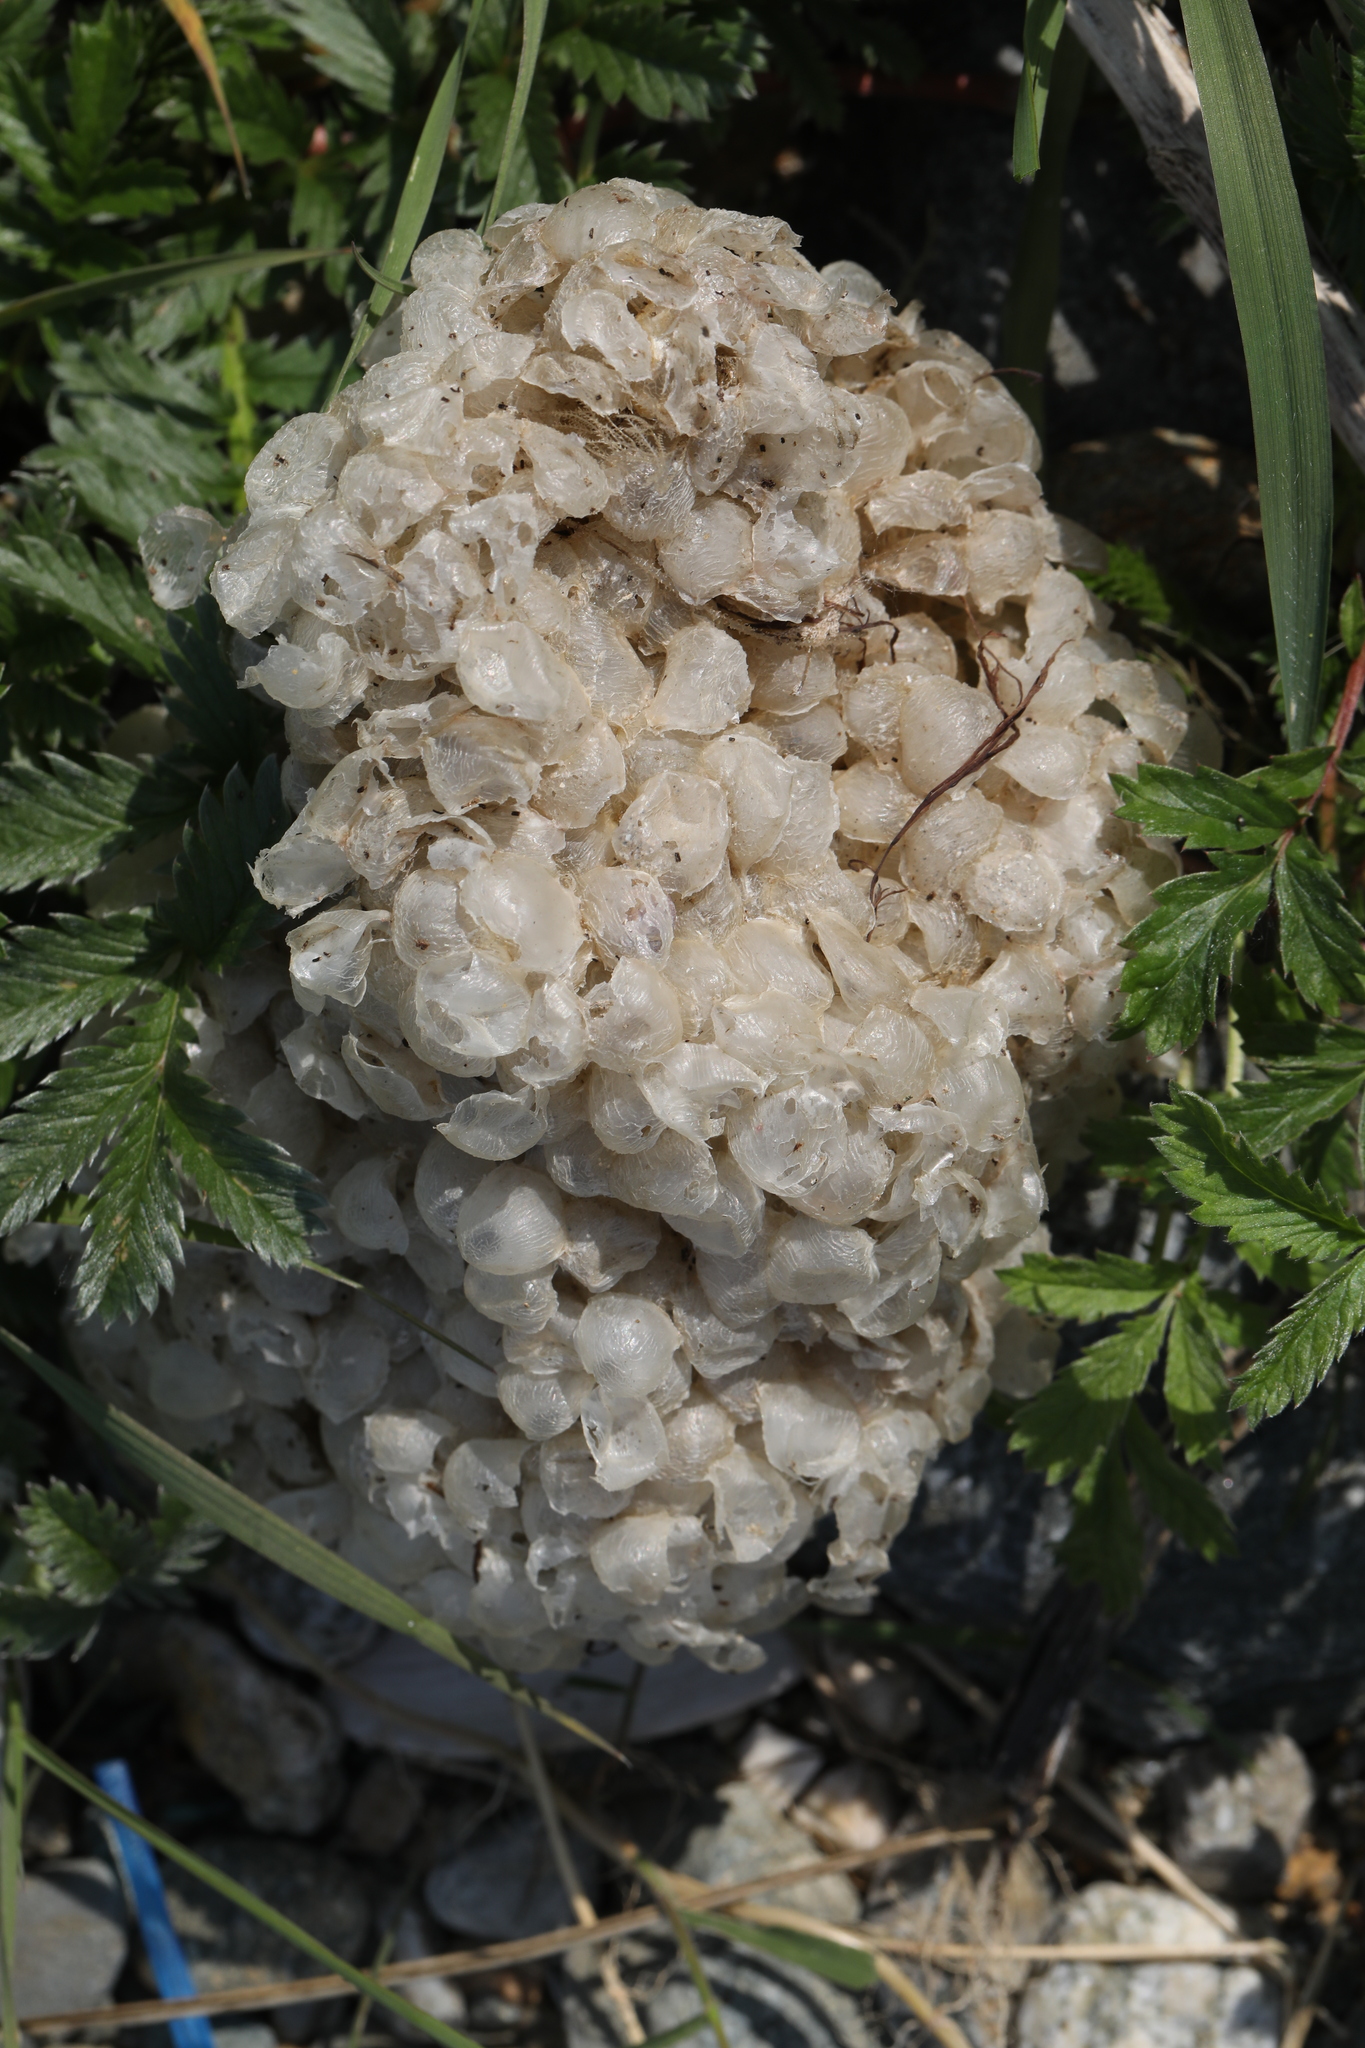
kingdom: Animalia
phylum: Mollusca
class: Gastropoda
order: Neogastropoda
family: Buccinidae
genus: Buccinum
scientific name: Buccinum undatum
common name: Common whelk
